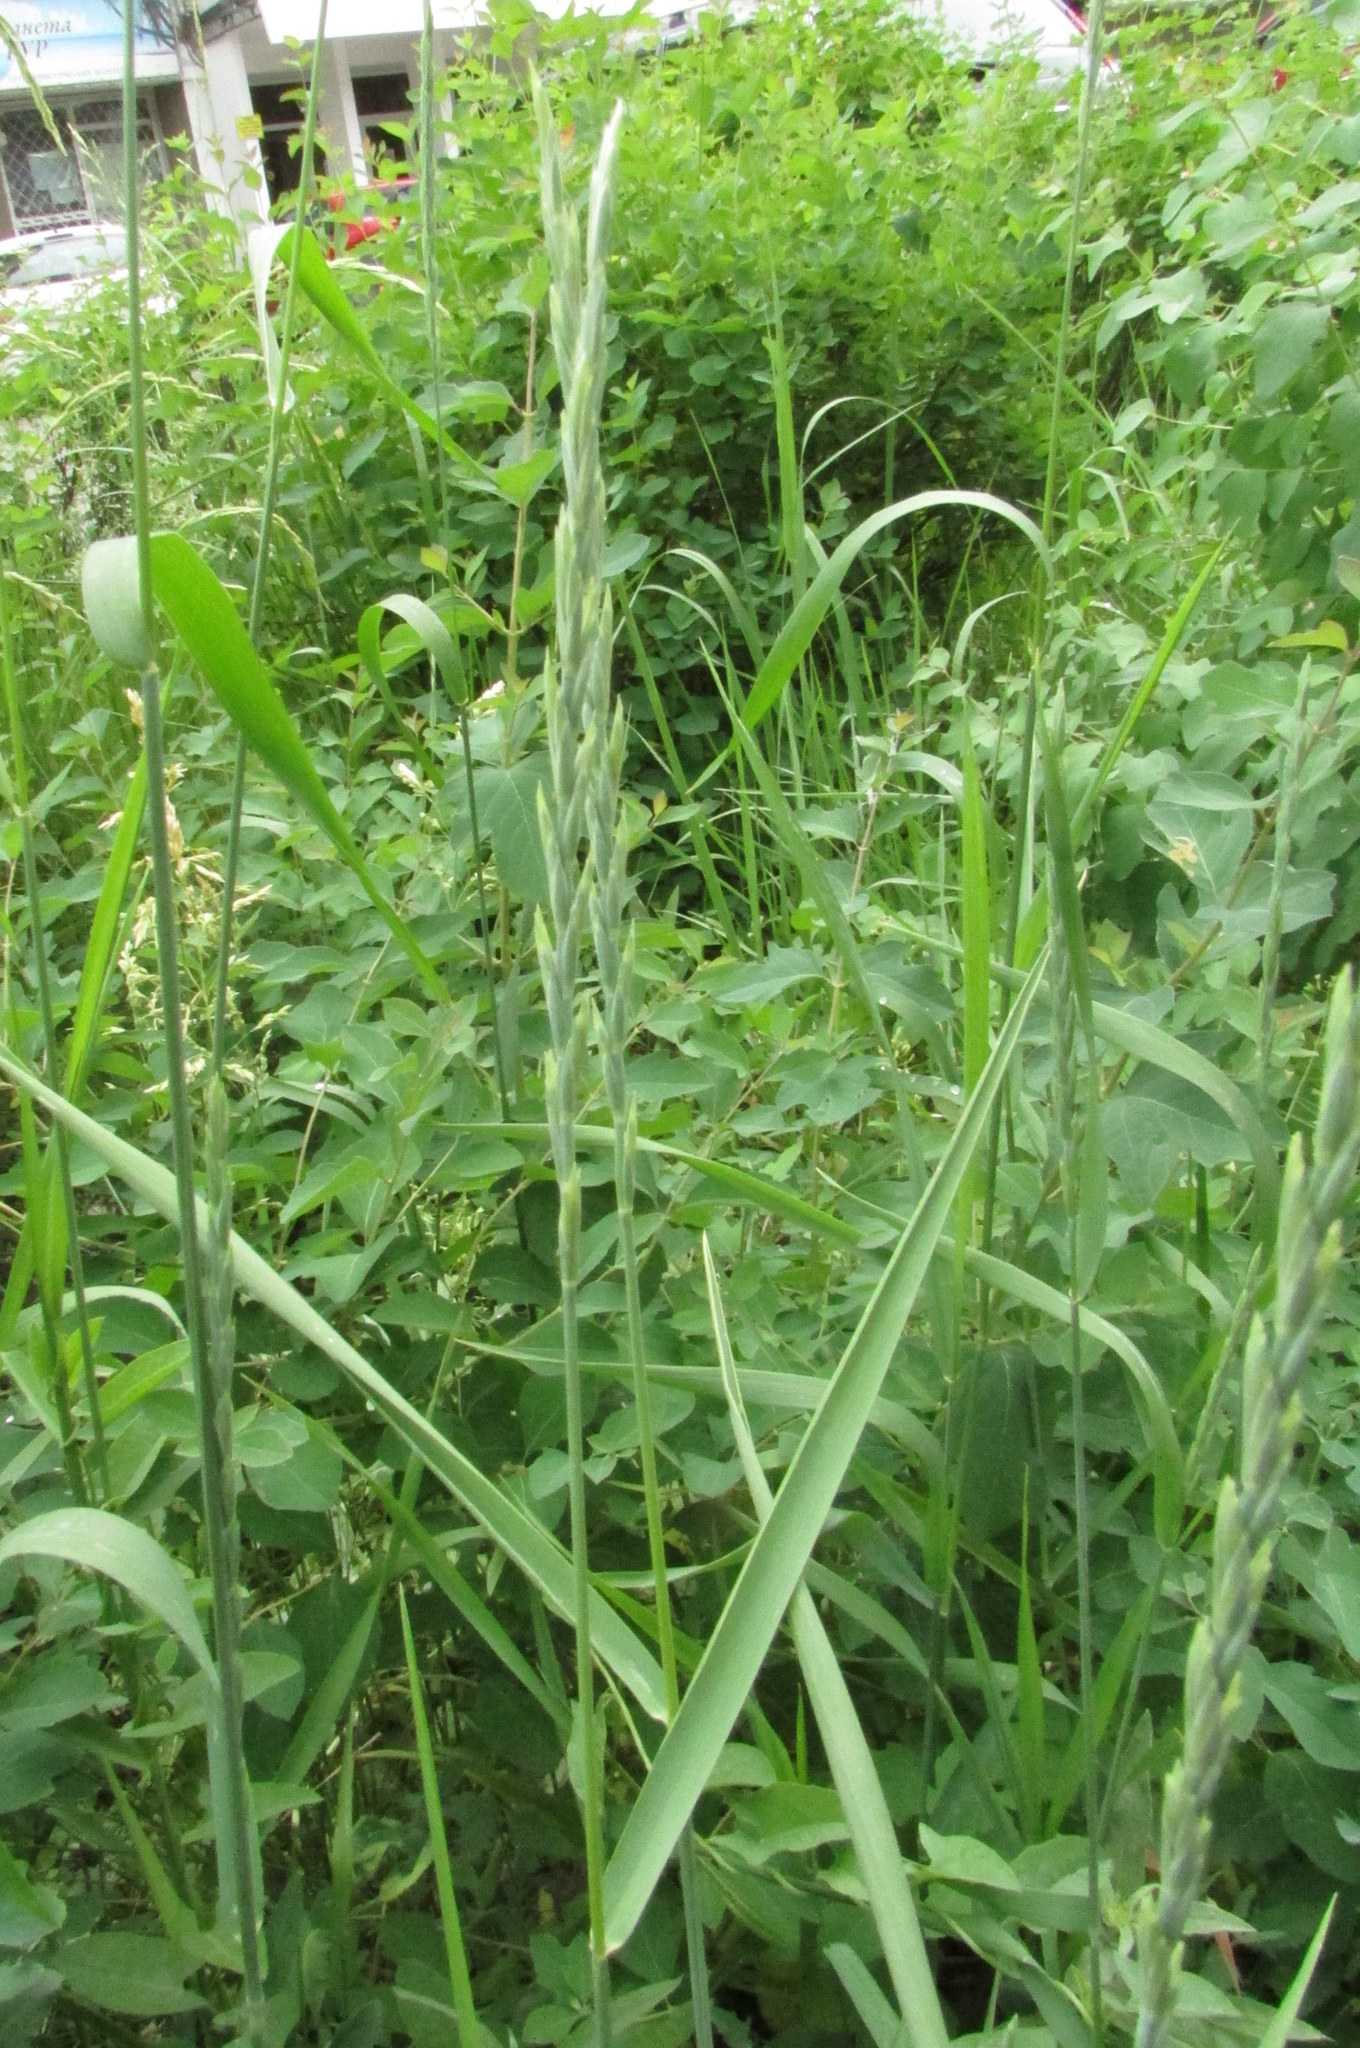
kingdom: Plantae
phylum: Tracheophyta
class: Liliopsida
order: Poales
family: Poaceae
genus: Elymus
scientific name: Elymus repens
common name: Quackgrass
